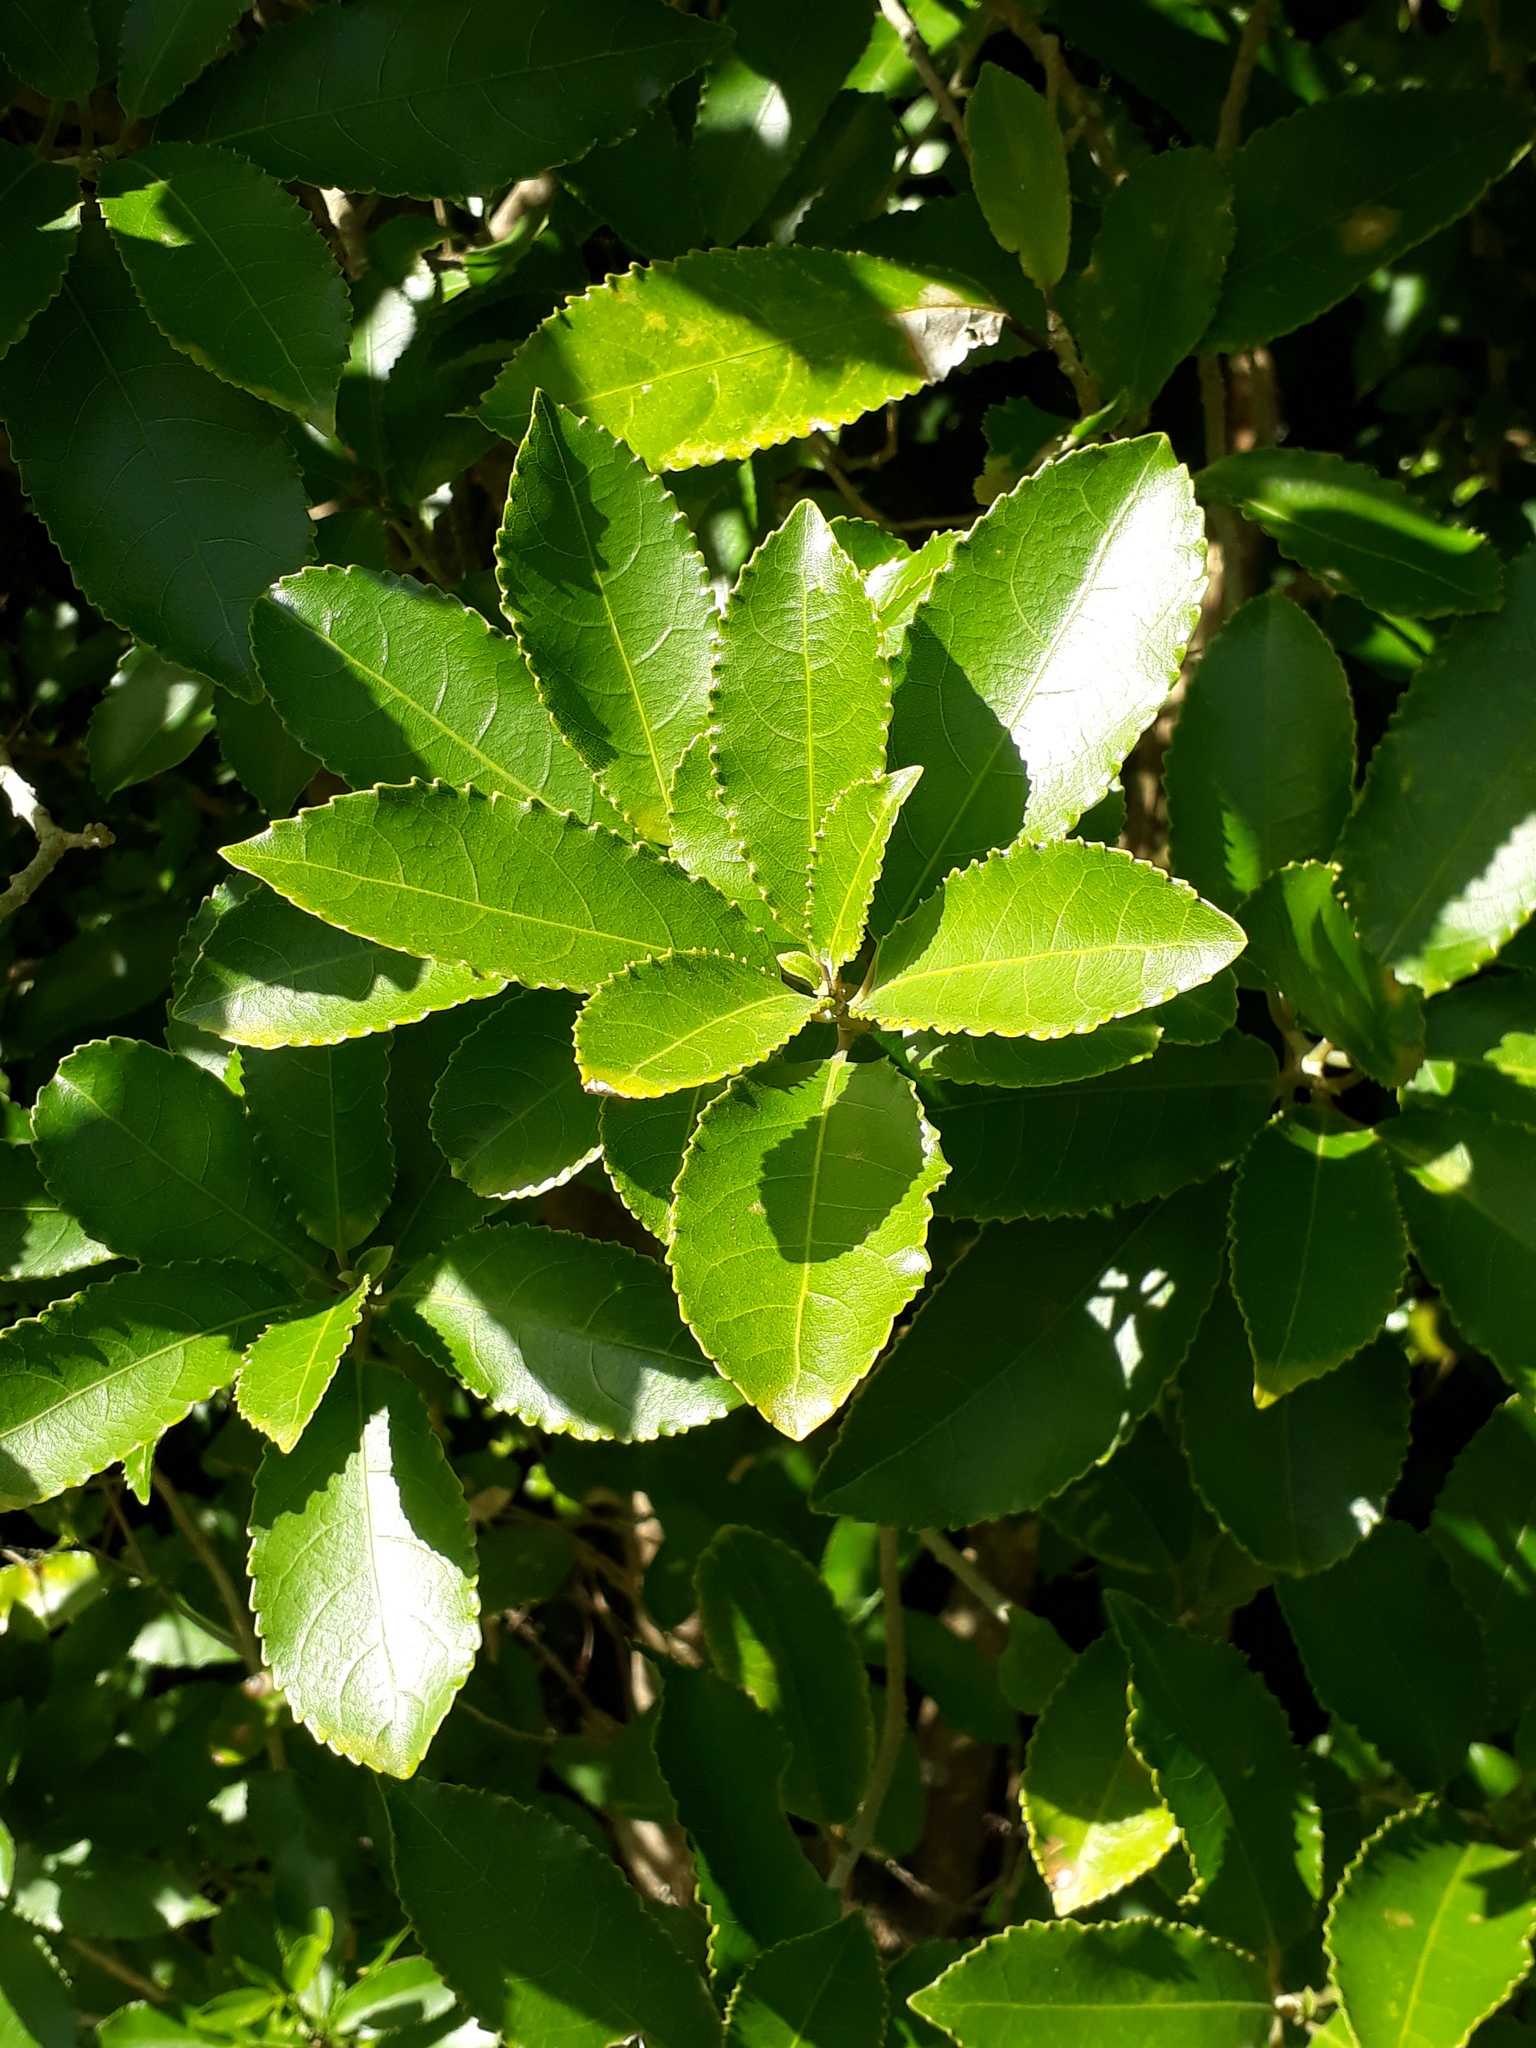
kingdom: Plantae
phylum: Tracheophyta
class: Magnoliopsida
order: Malpighiales
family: Violaceae
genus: Melicytus
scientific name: Melicytus ramiflorus
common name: Mahoe
